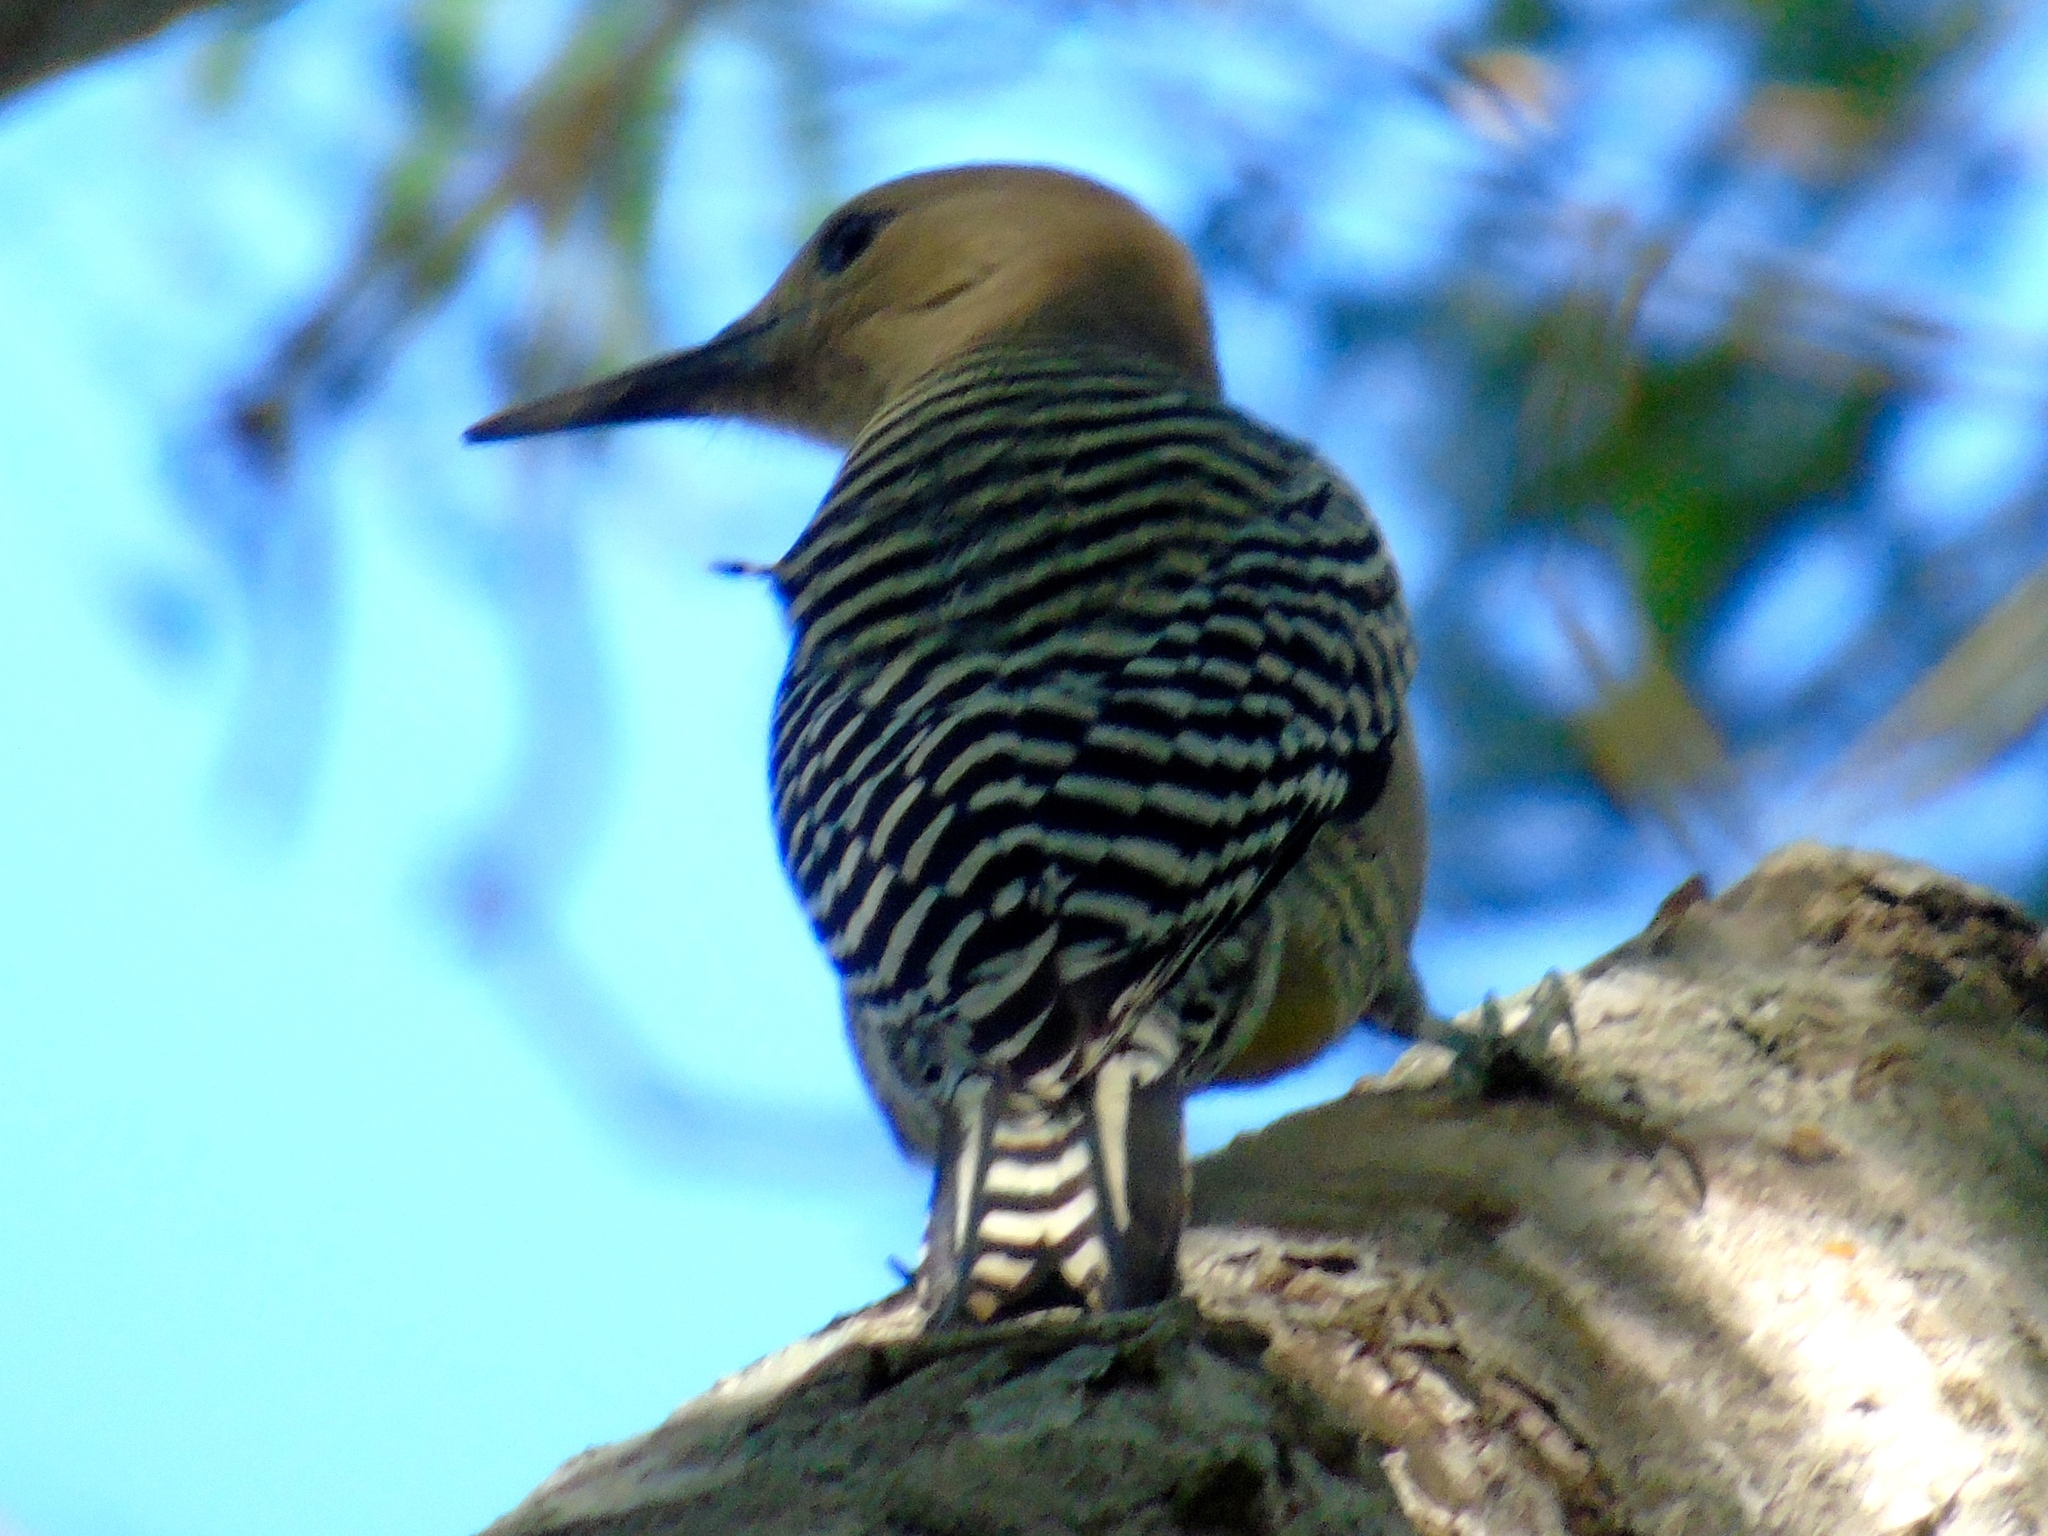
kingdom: Animalia
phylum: Chordata
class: Aves
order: Piciformes
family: Picidae
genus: Melanerpes
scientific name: Melanerpes uropygialis
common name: Gila woodpecker
